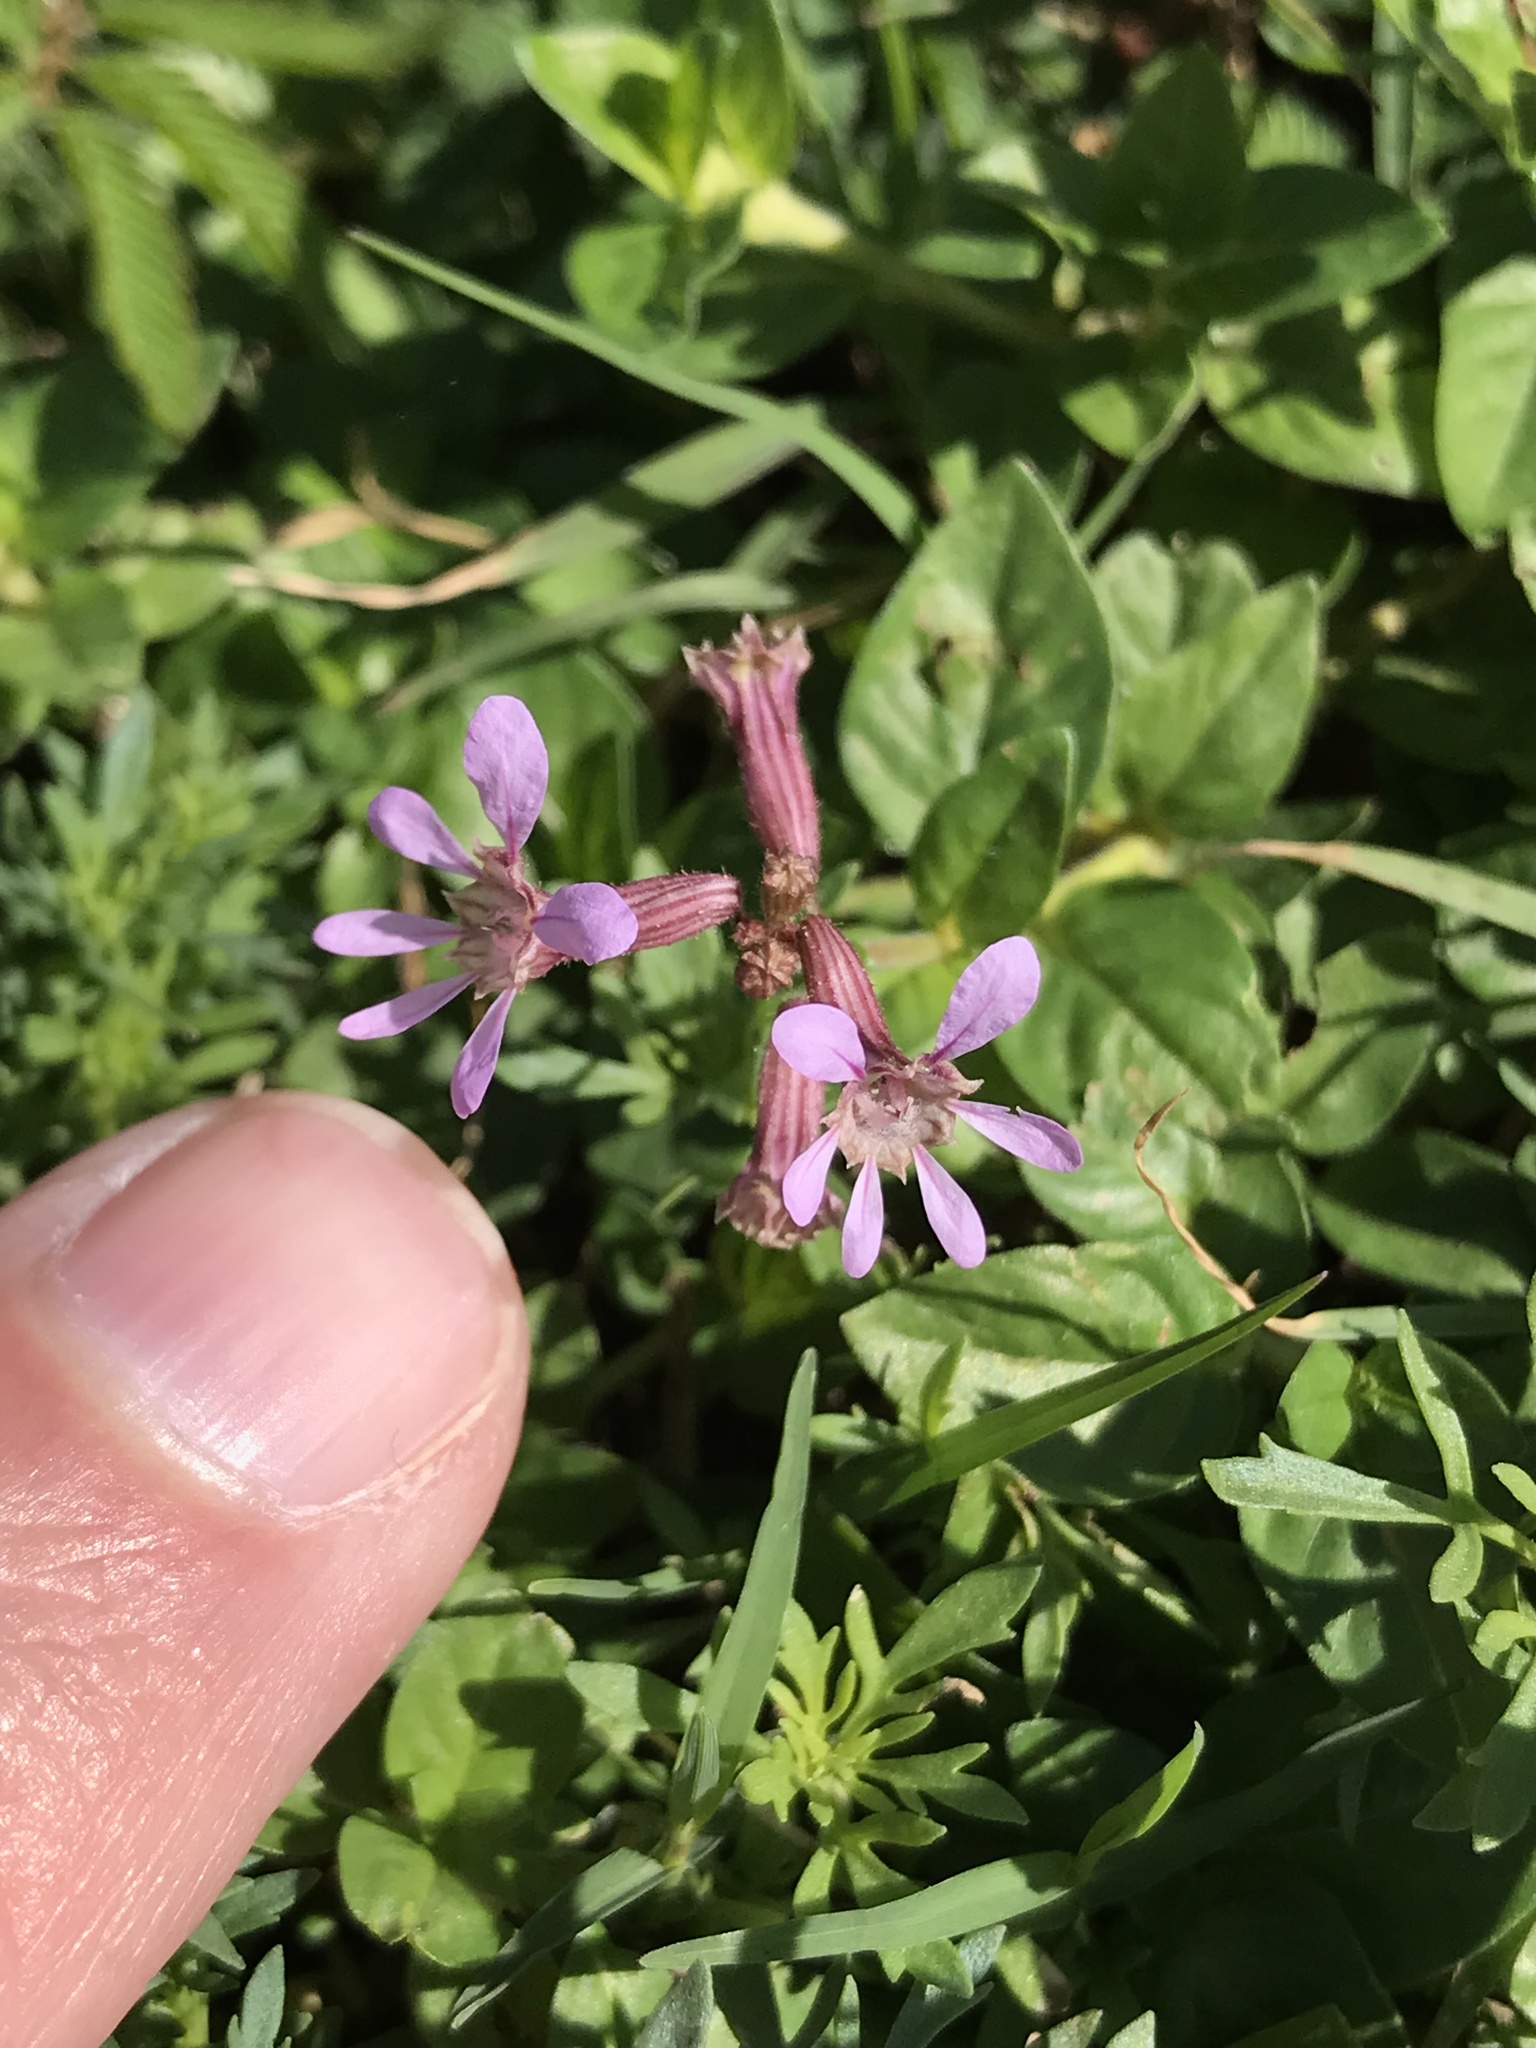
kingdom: Plantae
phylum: Tracheophyta
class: Magnoliopsida
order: Myrtales
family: Lythraceae
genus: Cuphea
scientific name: Cuphea racemosa
